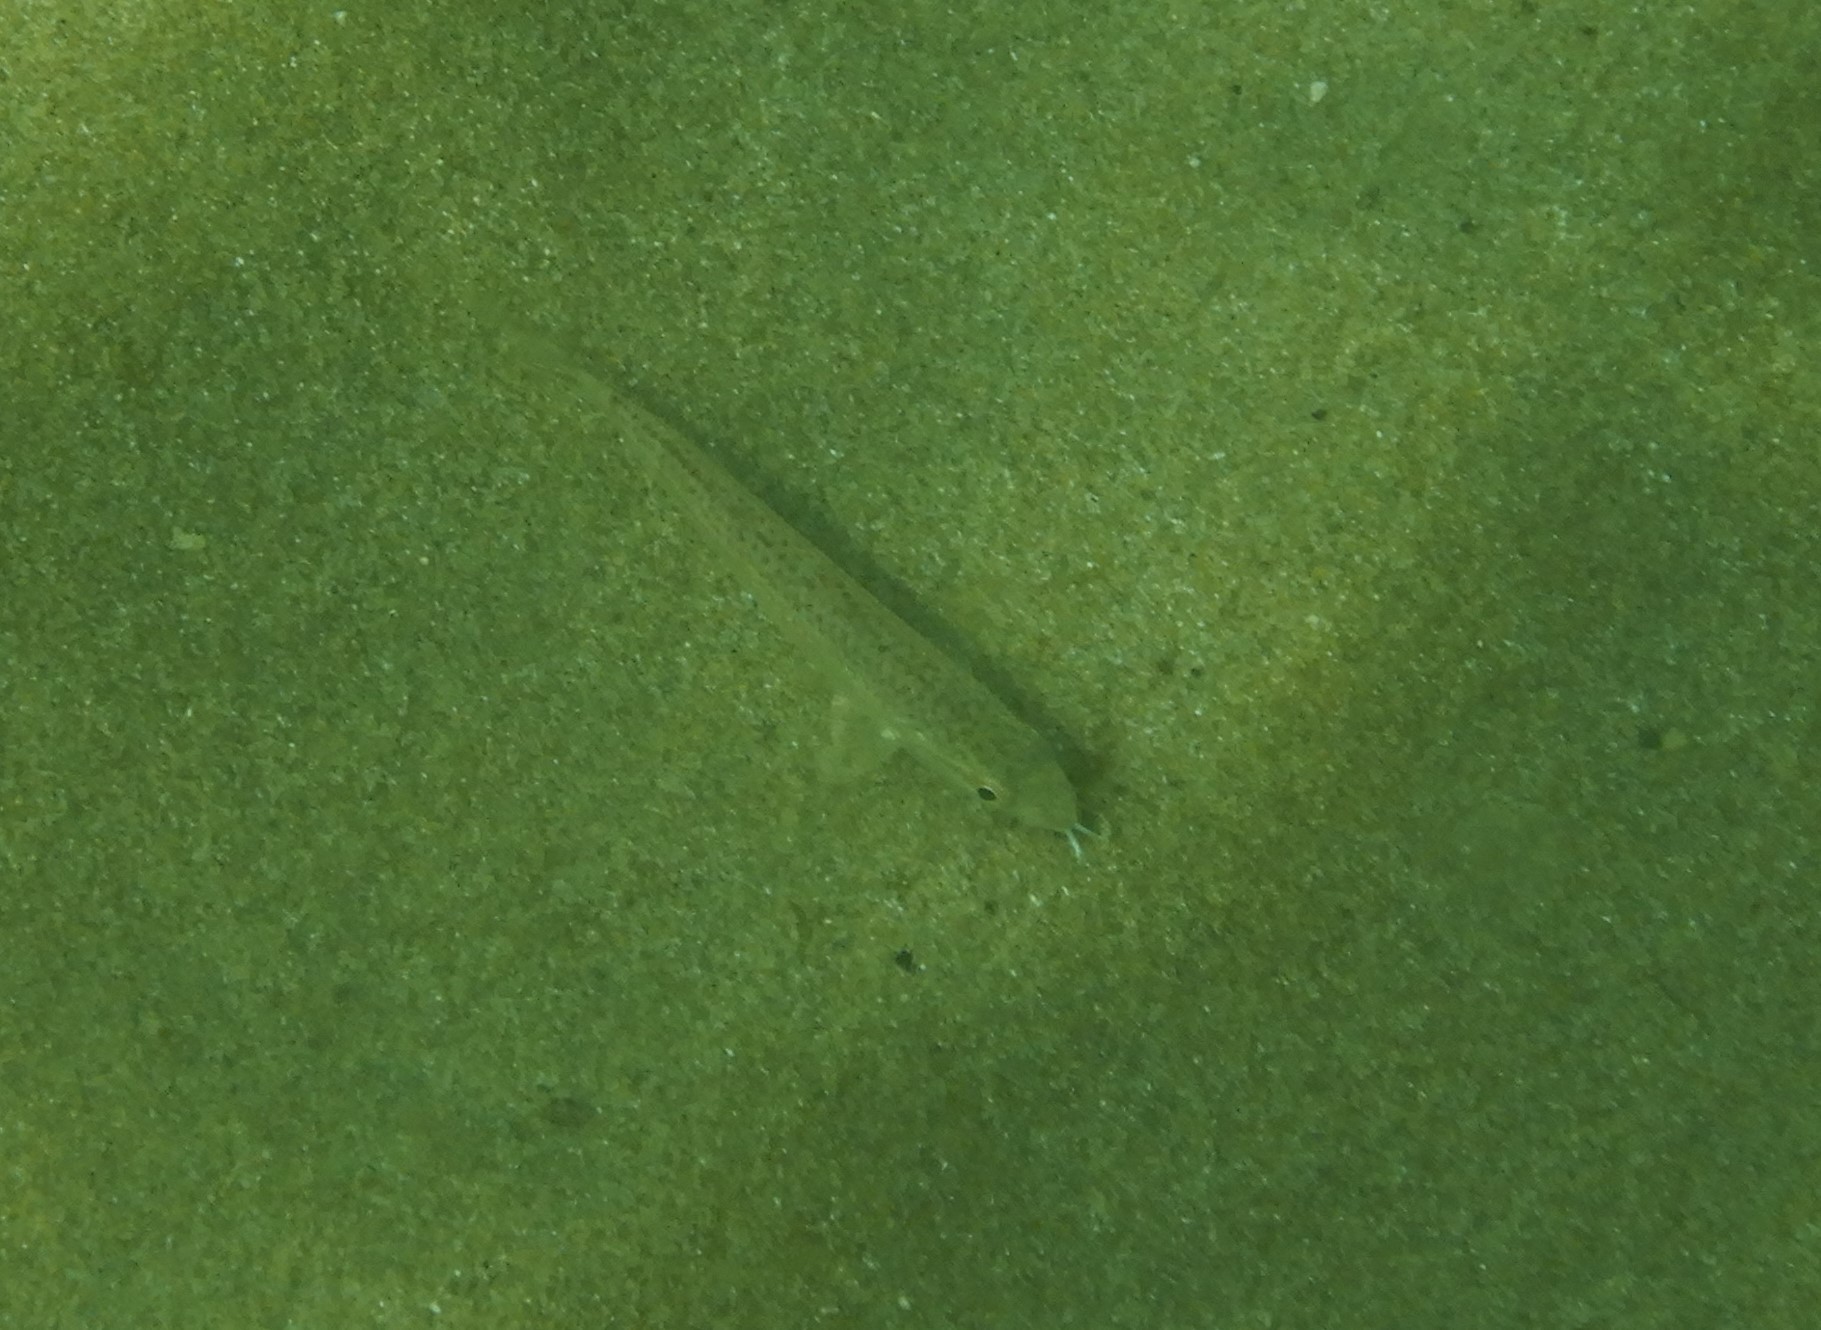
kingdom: Animalia
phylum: Chordata
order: Perciformes
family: Mullidae
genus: Upeneus
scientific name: Upeneus francisi
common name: Francis' goatfish
